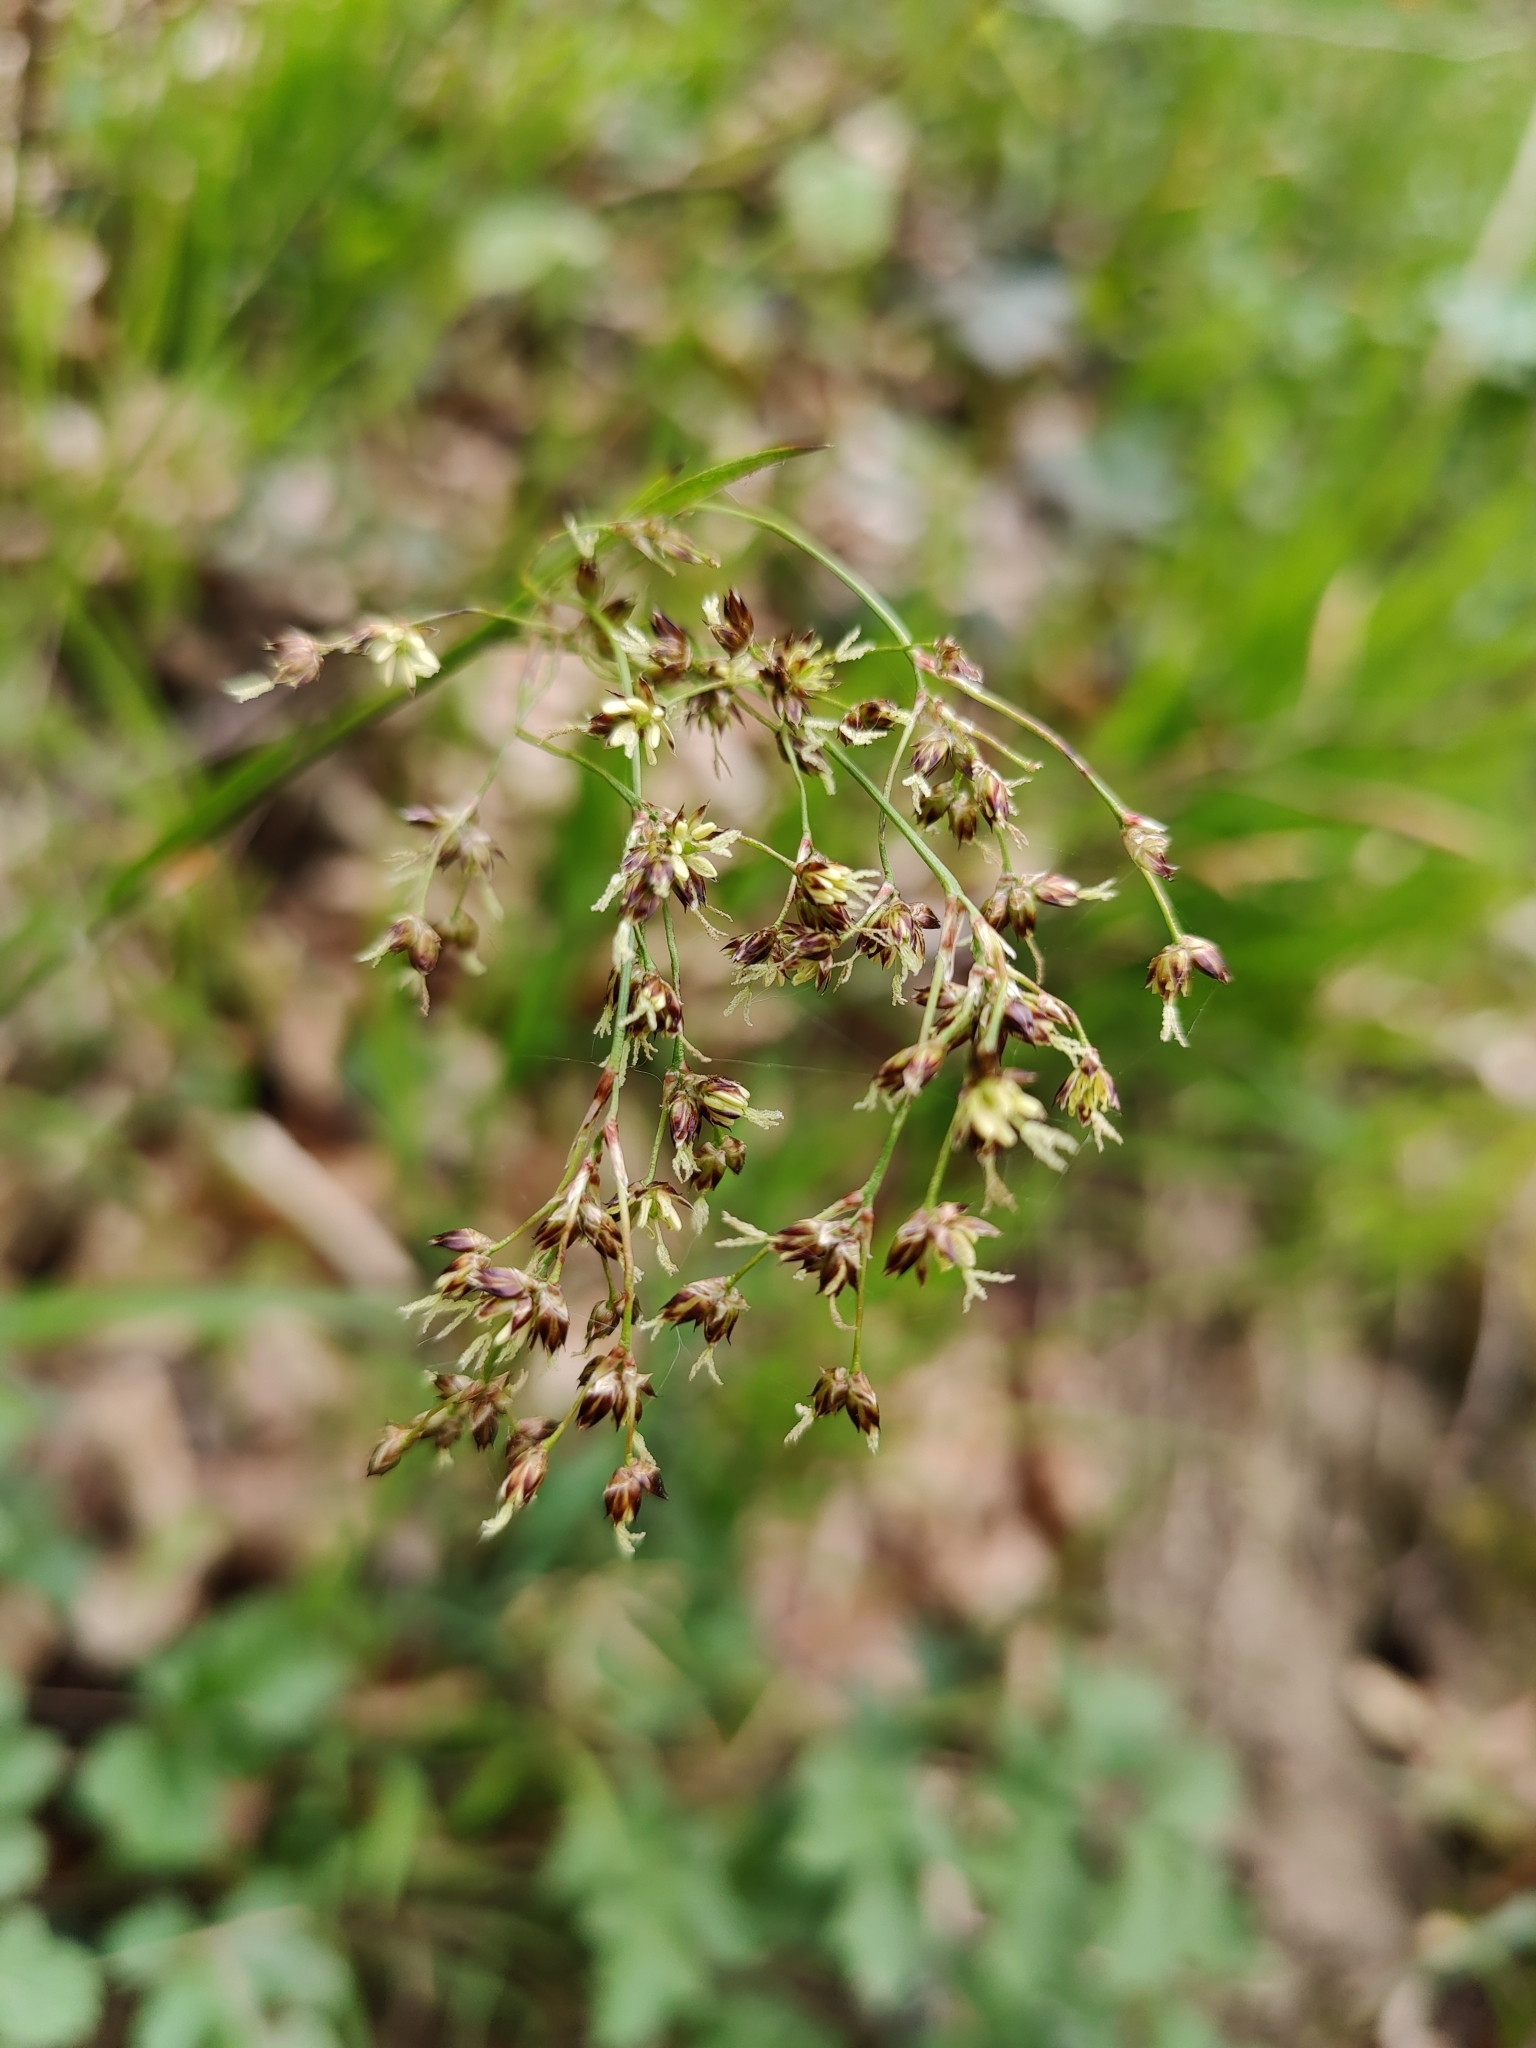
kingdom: Plantae
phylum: Tracheophyta
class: Liliopsida
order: Poales
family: Juncaceae
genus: Luzula
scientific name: Luzula sylvatica
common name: Great wood-rush
